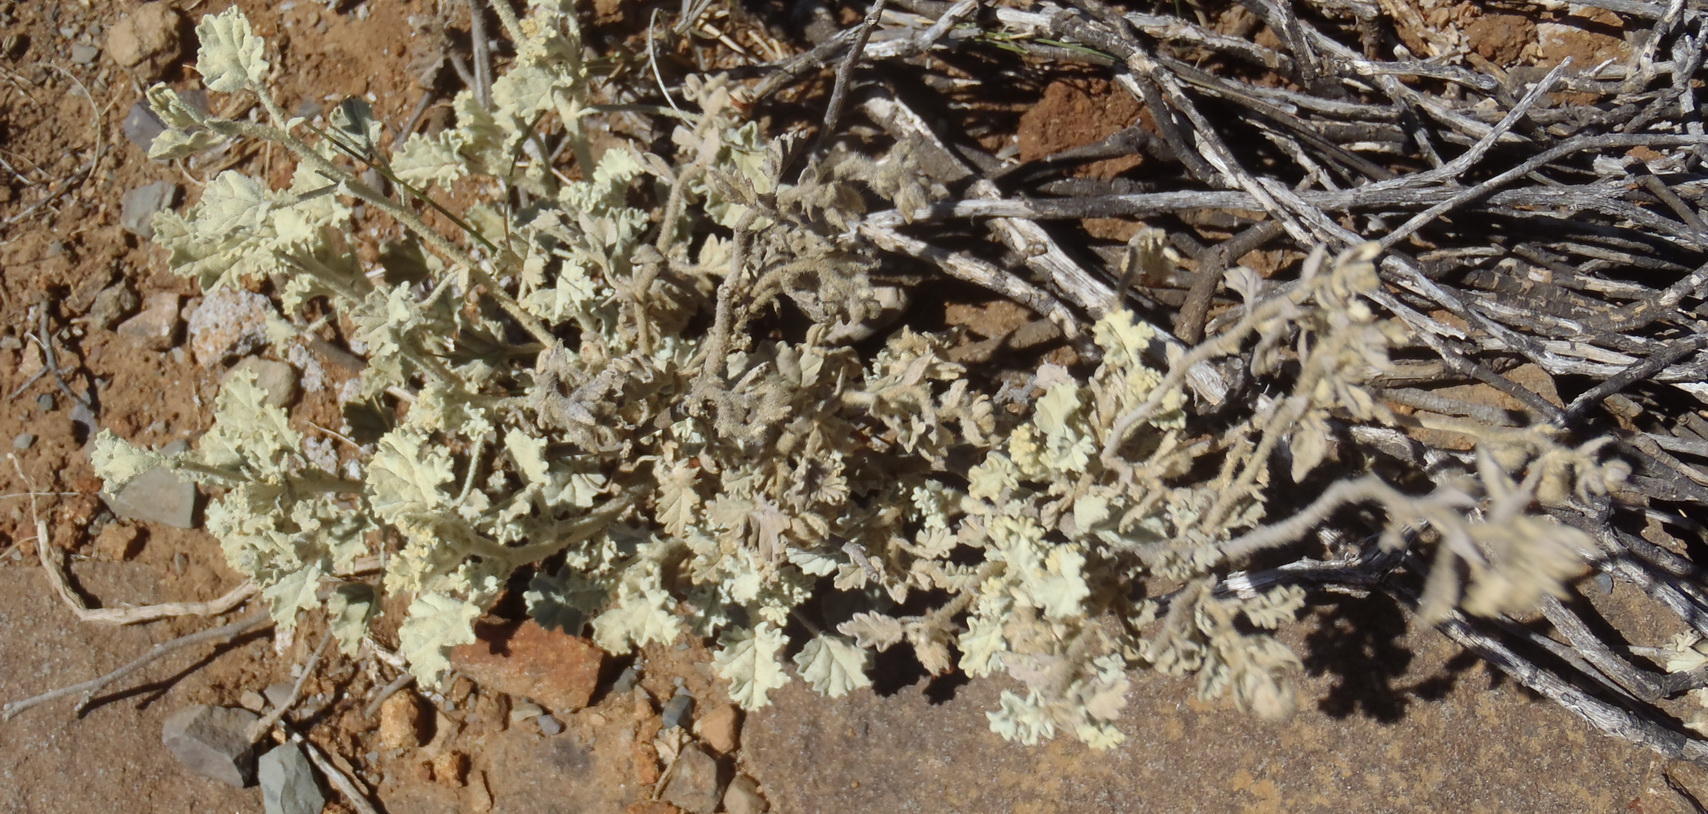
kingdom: Plantae
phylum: Tracheophyta
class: Magnoliopsida
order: Malvales
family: Malvaceae
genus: Hermannia
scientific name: Hermannia vestita
